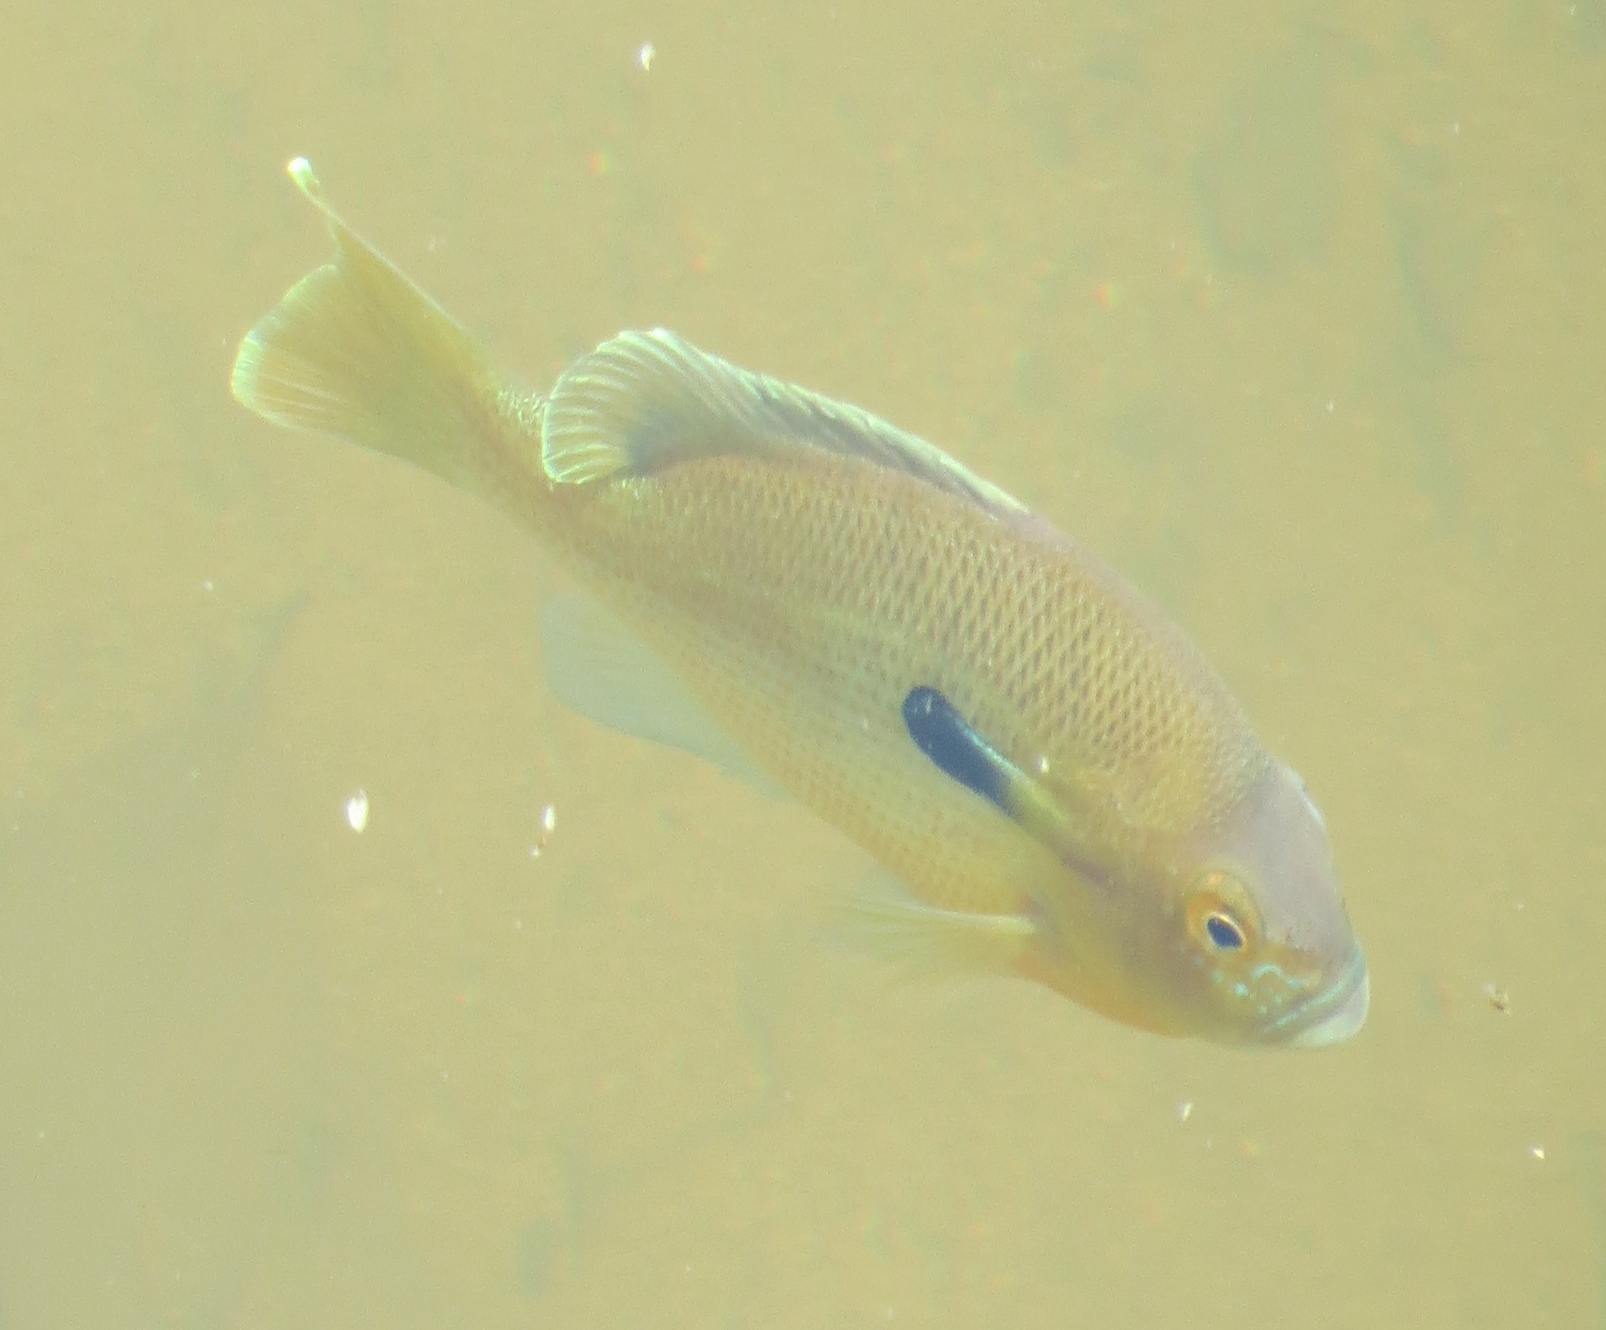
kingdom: Animalia
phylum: Chordata
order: Perciformes
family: Centrarchidae
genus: Lepomis
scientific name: Lepomis auritus
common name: Redbreast sunfish
